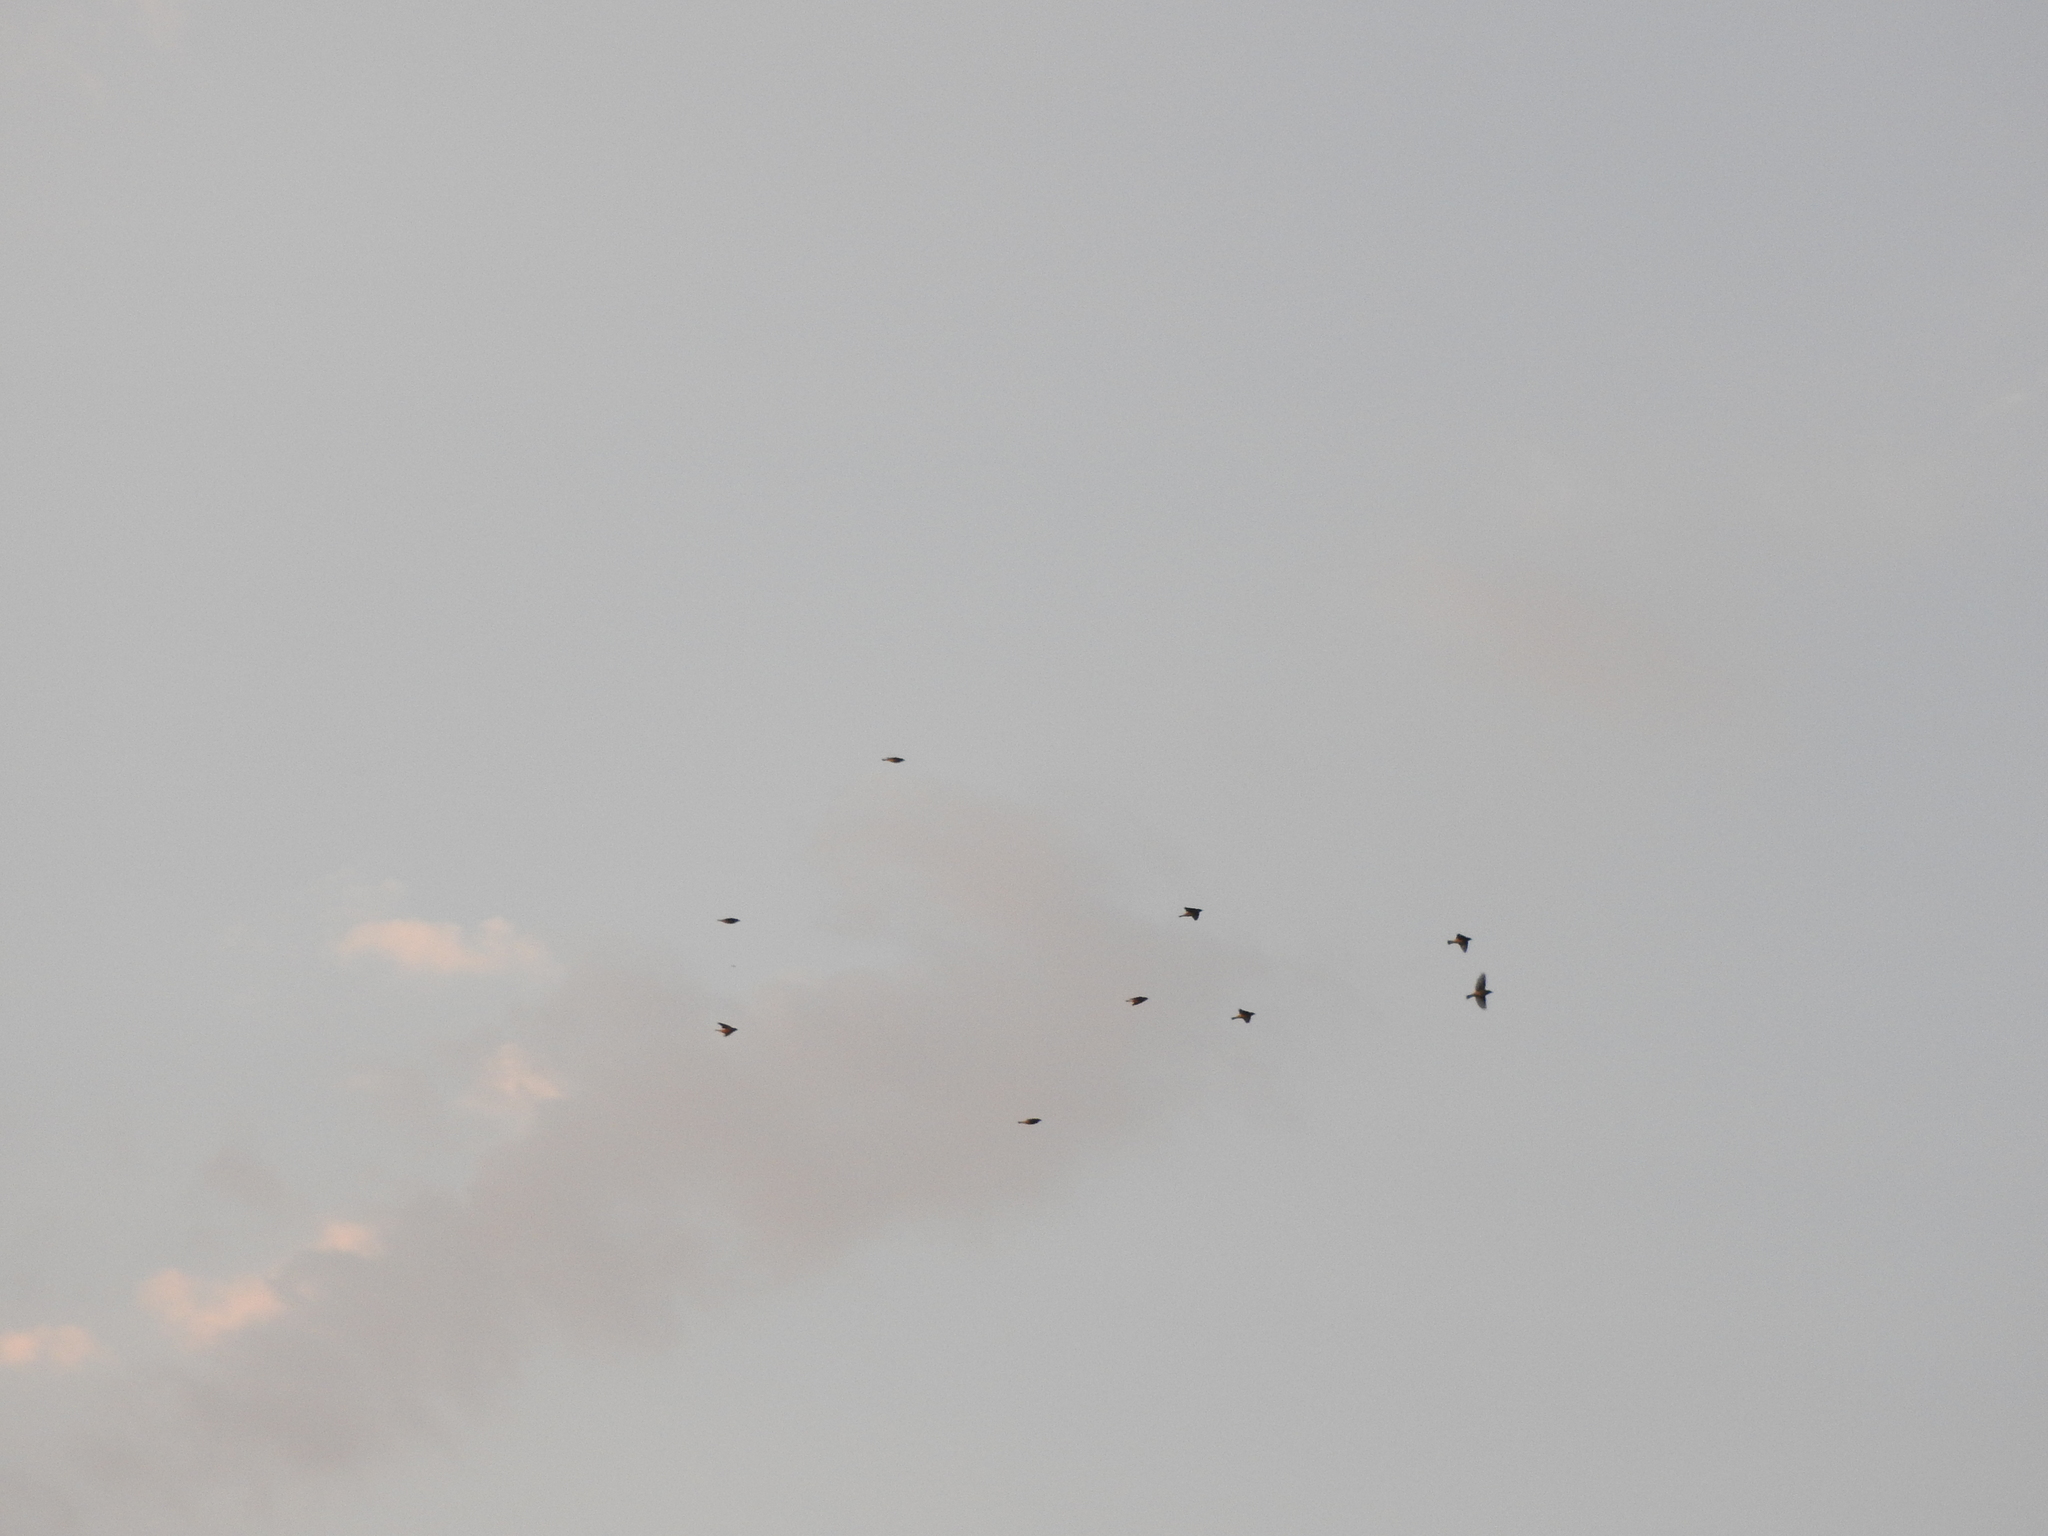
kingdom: Animalia
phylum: Chordata
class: Aves
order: Passeriformes
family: Bombycillidae
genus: Bombycilla
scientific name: Bombycilla cedrorum
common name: Cedar waxwing
